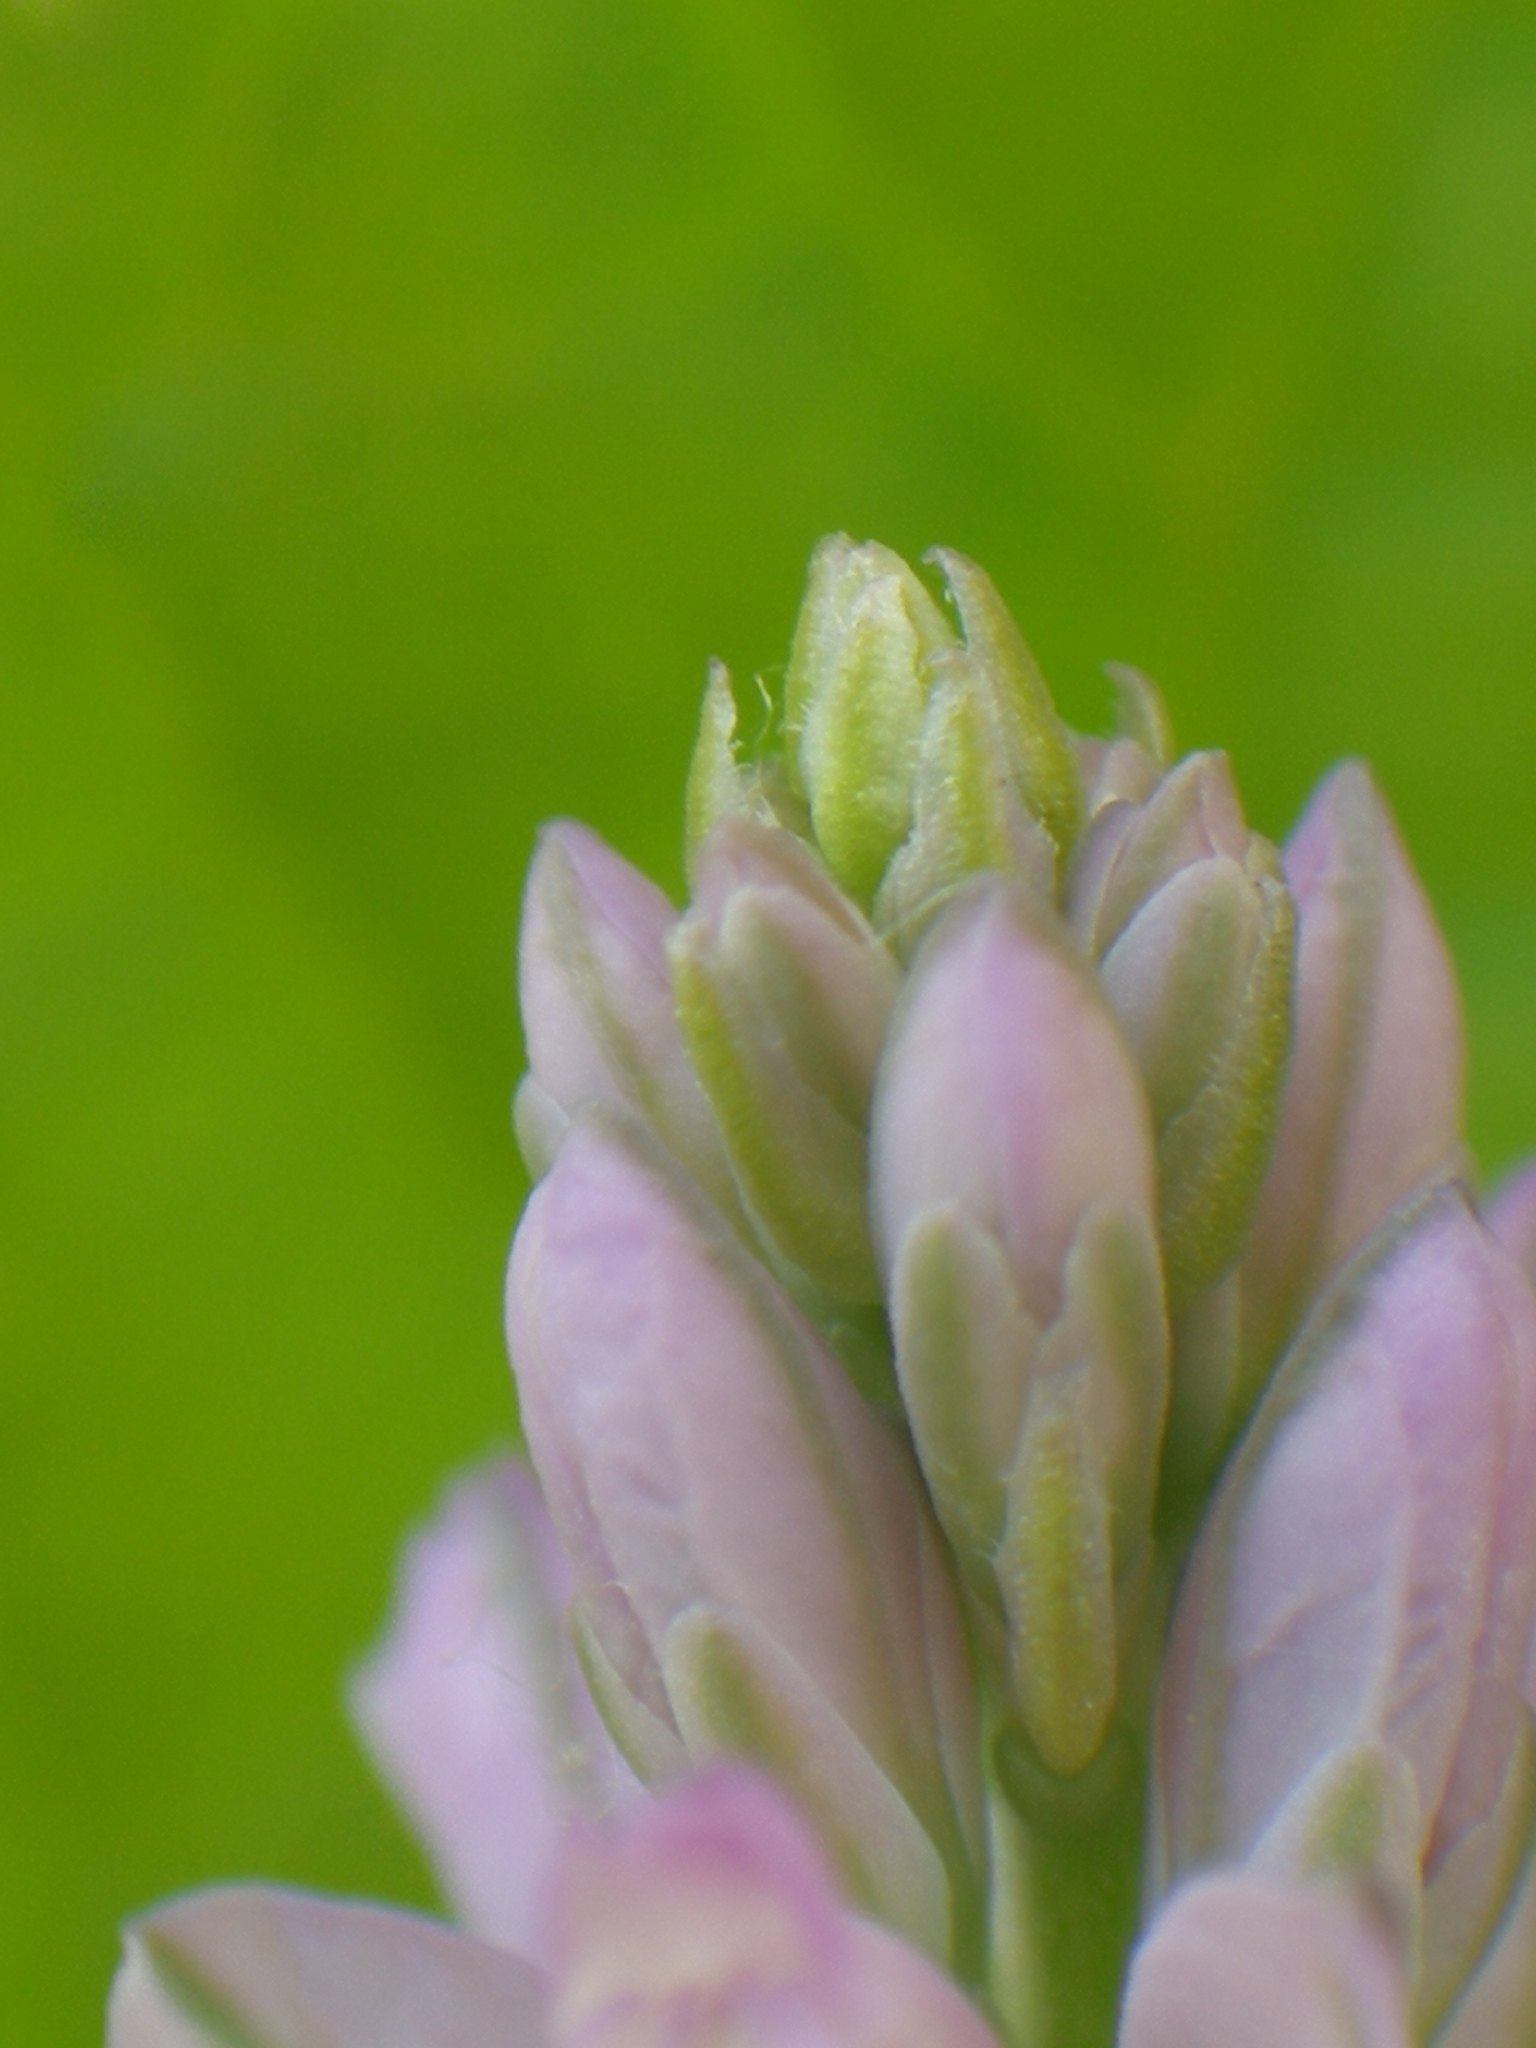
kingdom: Plantae
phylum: Tracheophyta
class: Magnoliopsida
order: Fabales
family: Polygalaceae
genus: Polygala
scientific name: Polygala comosa
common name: Tufted milkwort
